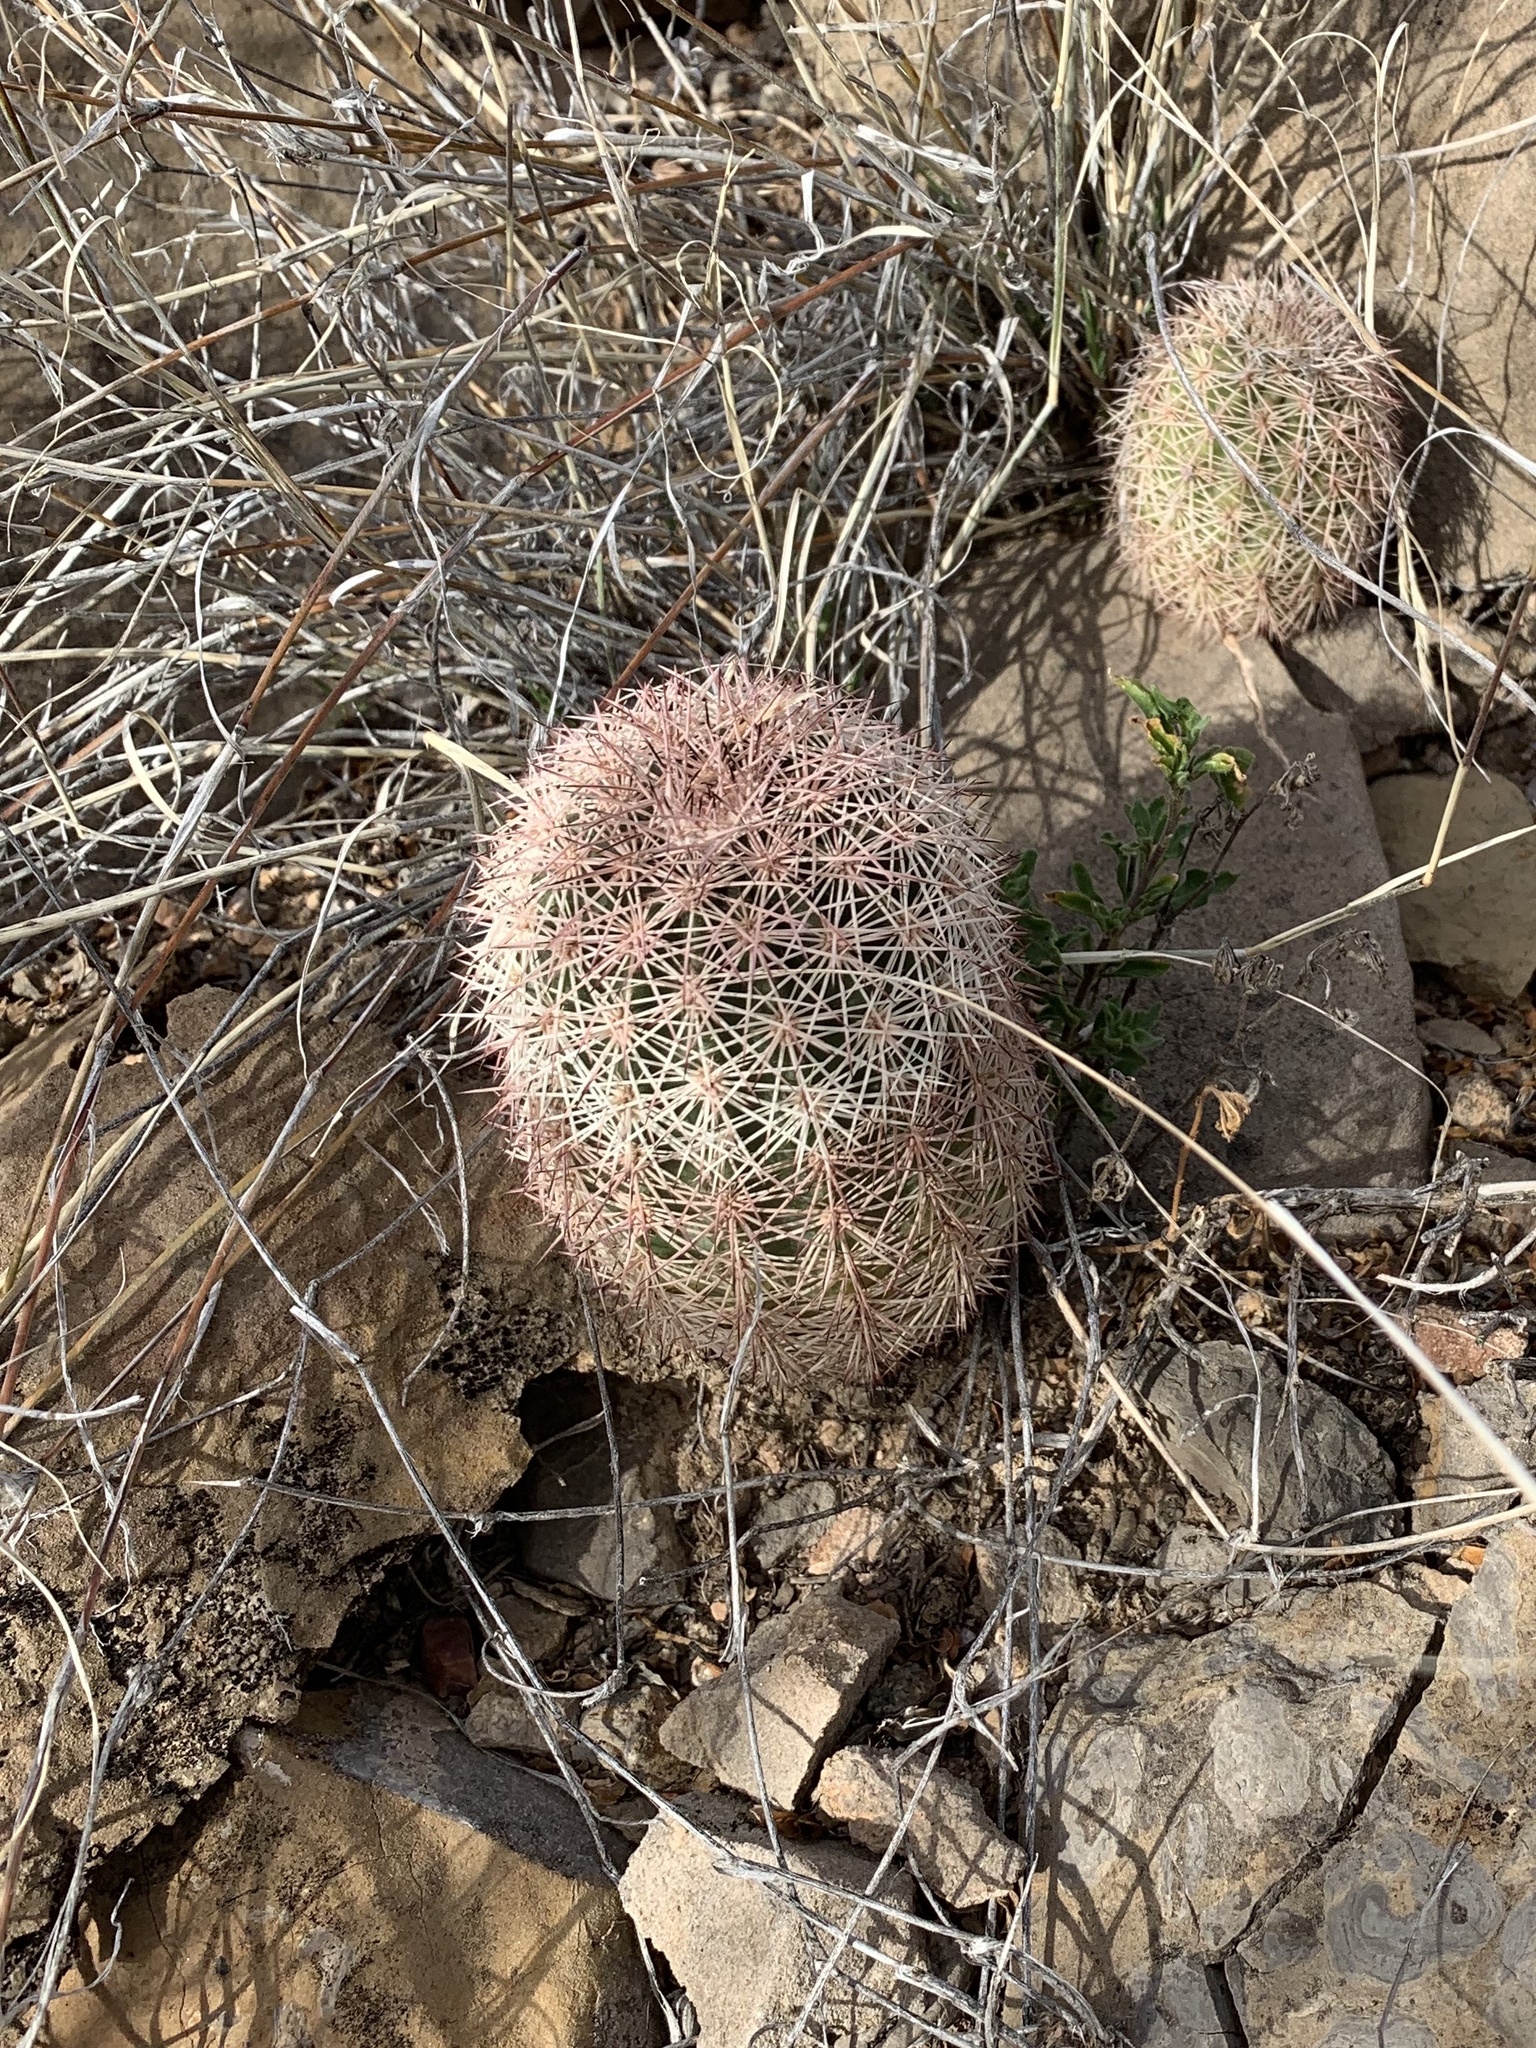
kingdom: Plantae
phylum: Tracheophyta
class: Magnoliopsida
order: Caryophyllales
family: Cactaceae
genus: Echinocereus
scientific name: Echinocereus dasyacanthus
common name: Spiny hedgehog cactus
